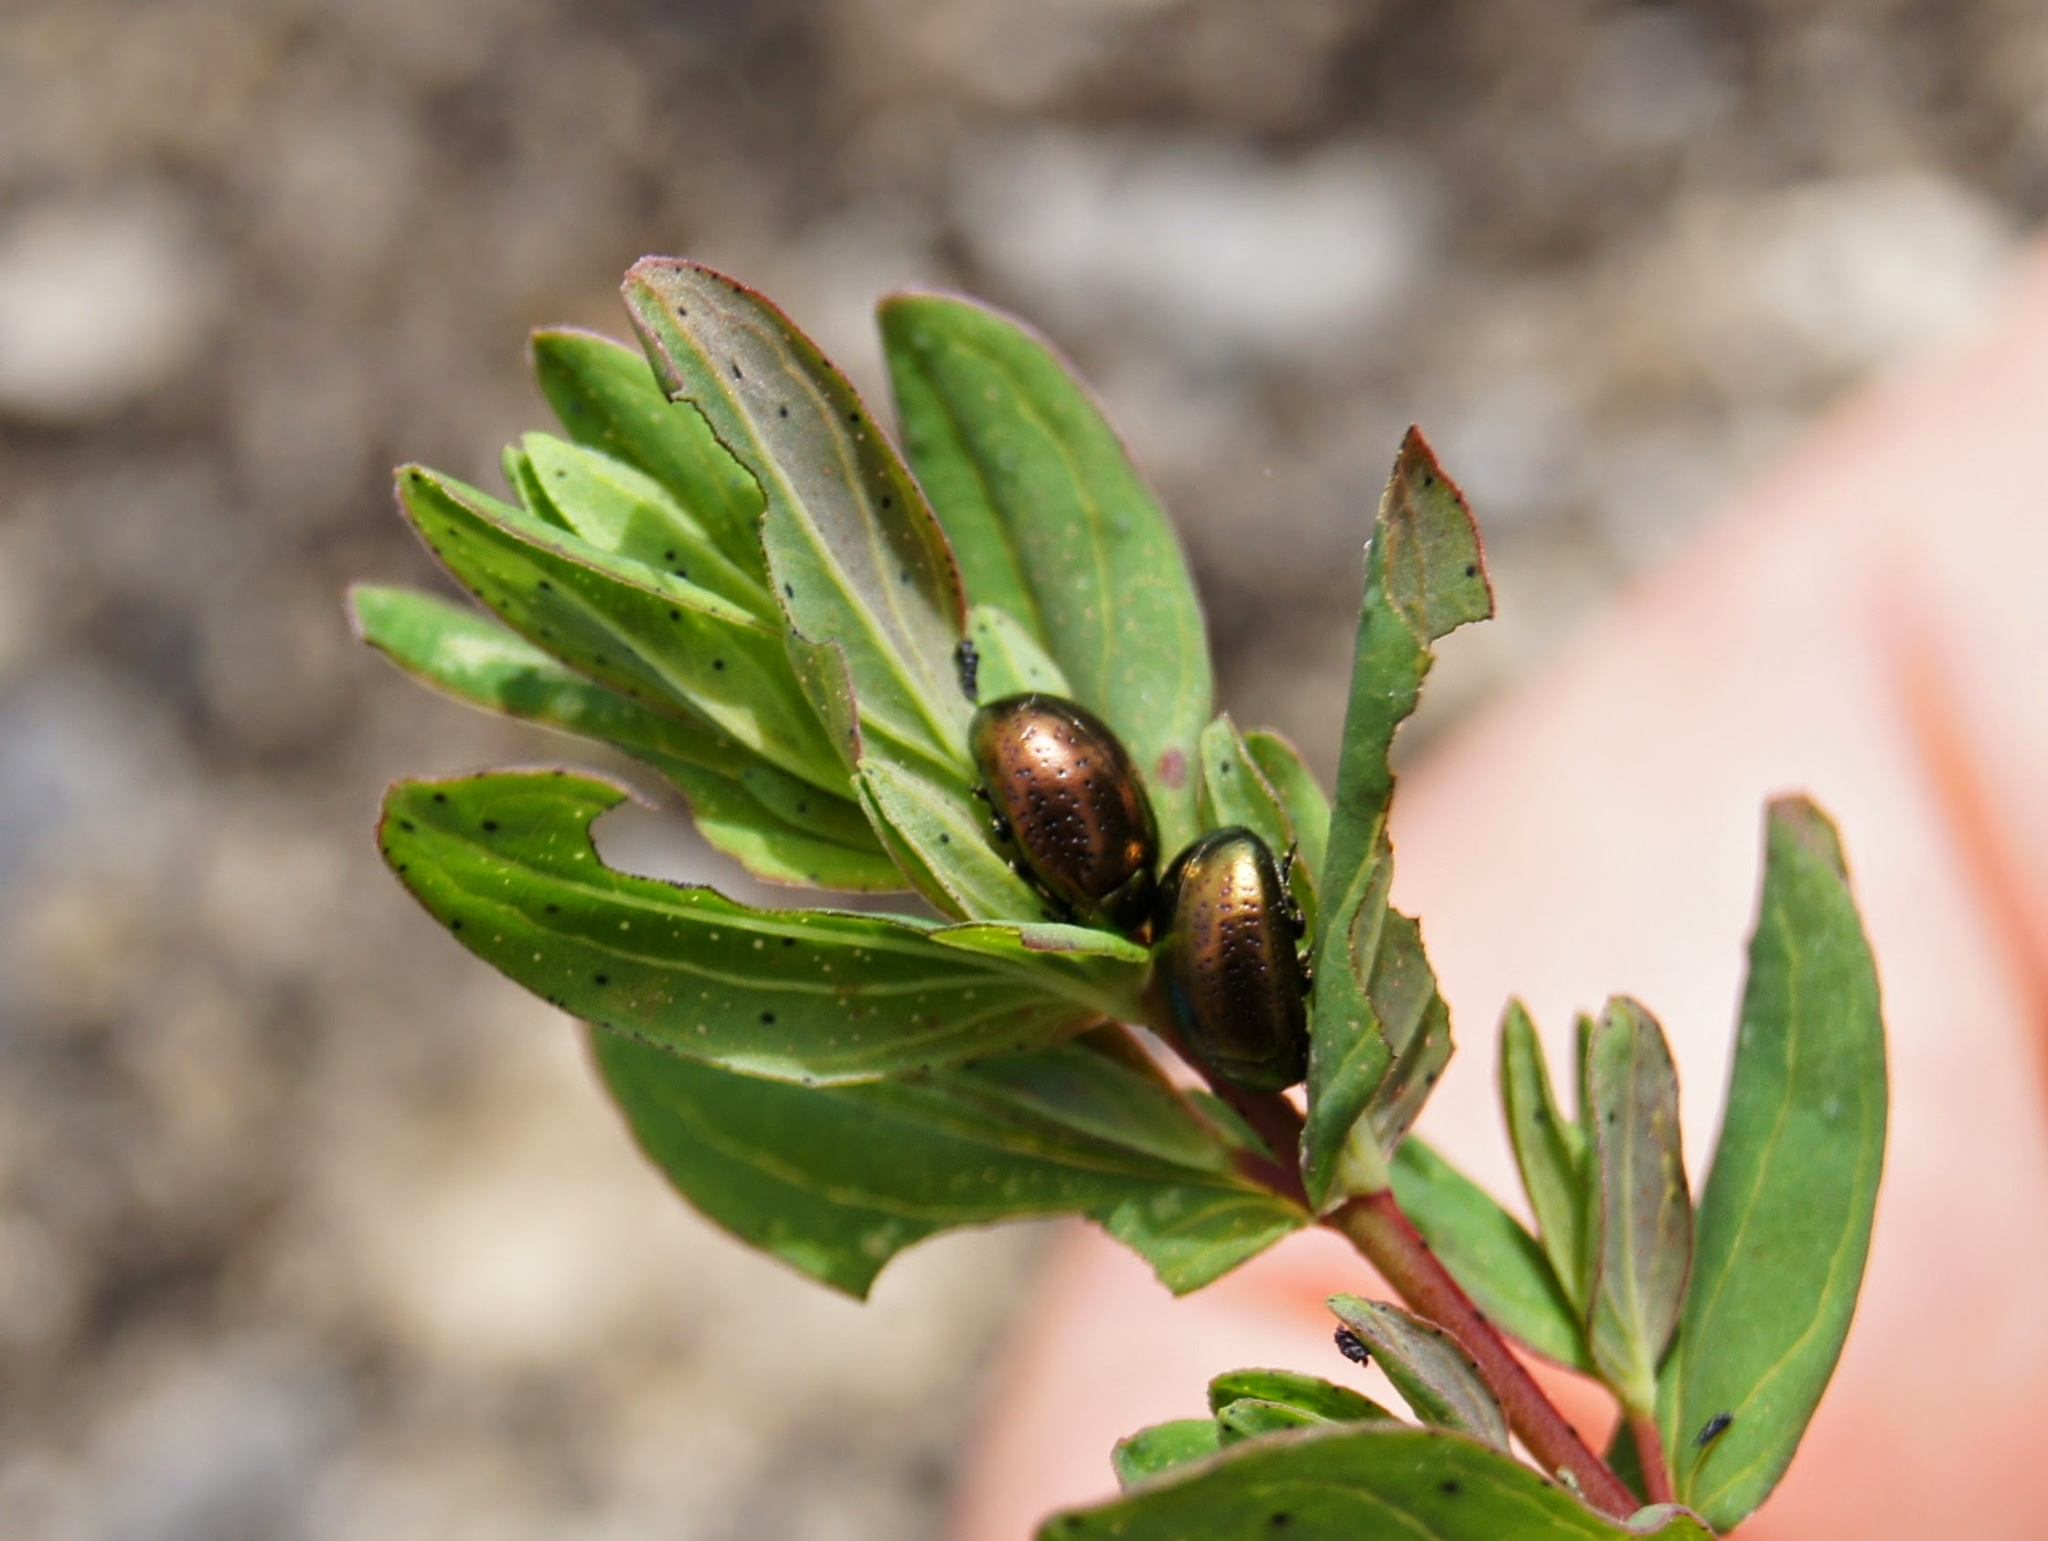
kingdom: Animalia
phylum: Arthropoda
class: Insecta
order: Coleoptera
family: Chrysomelidae
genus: Chrysolina
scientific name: Chrysolina hyperici
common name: St. johnswort beetle
